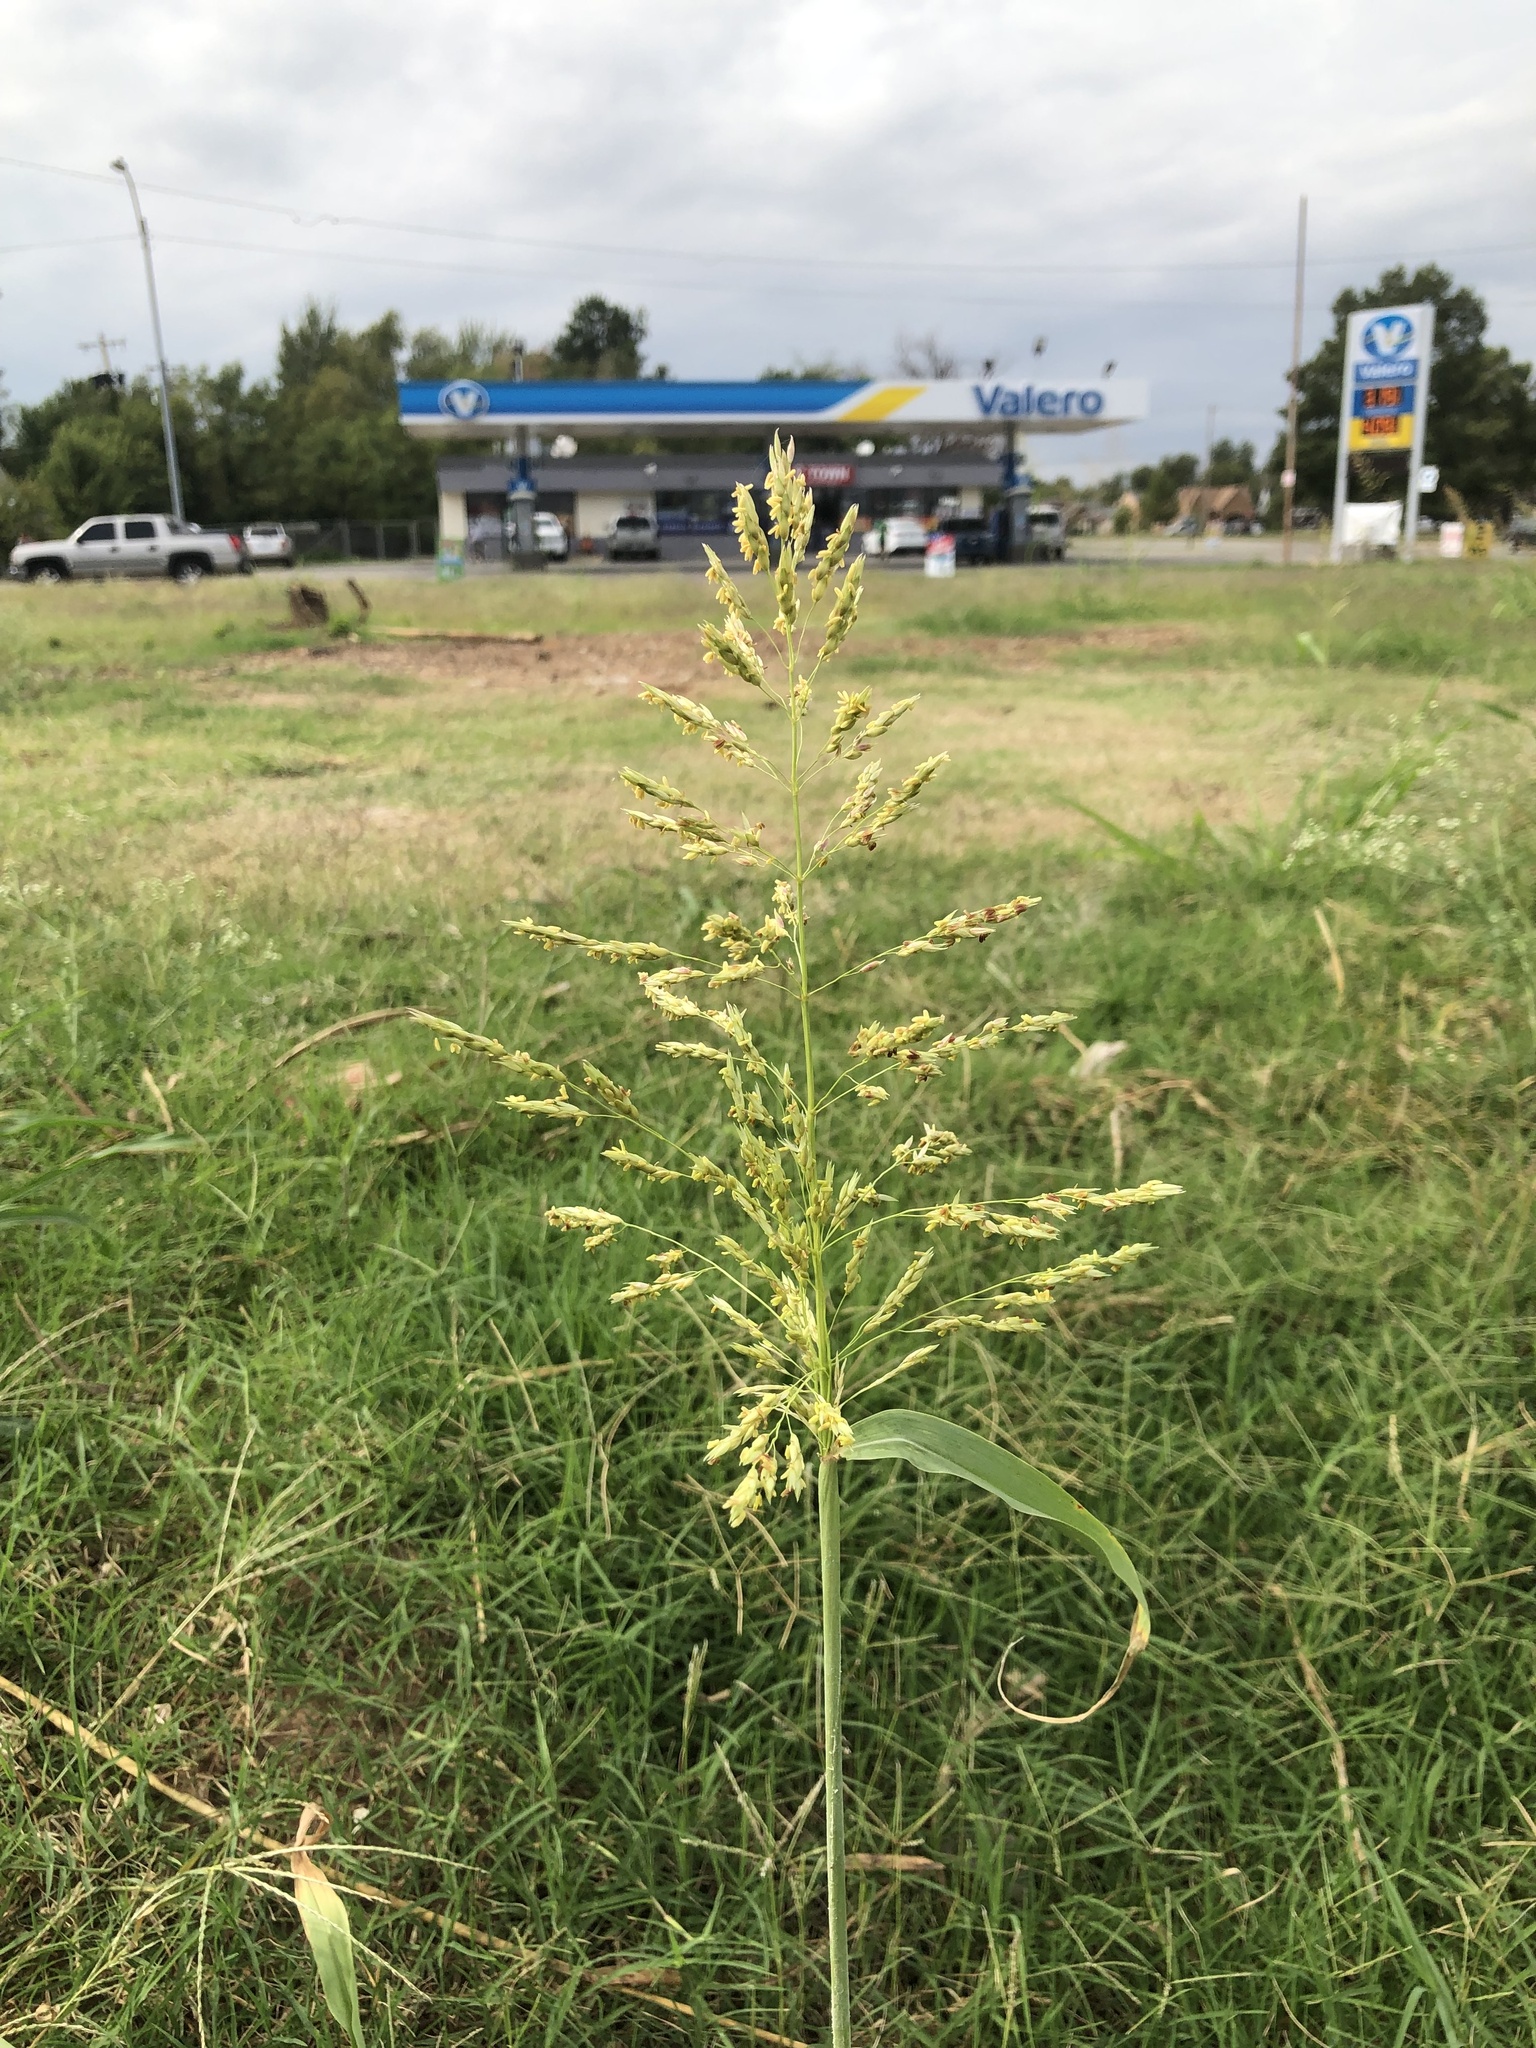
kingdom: Plantae
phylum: Tracheophyta
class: Liliopsida
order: Poales
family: Poaceae
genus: Sorghum
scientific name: Sorghum halepense
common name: Johnson-grass
